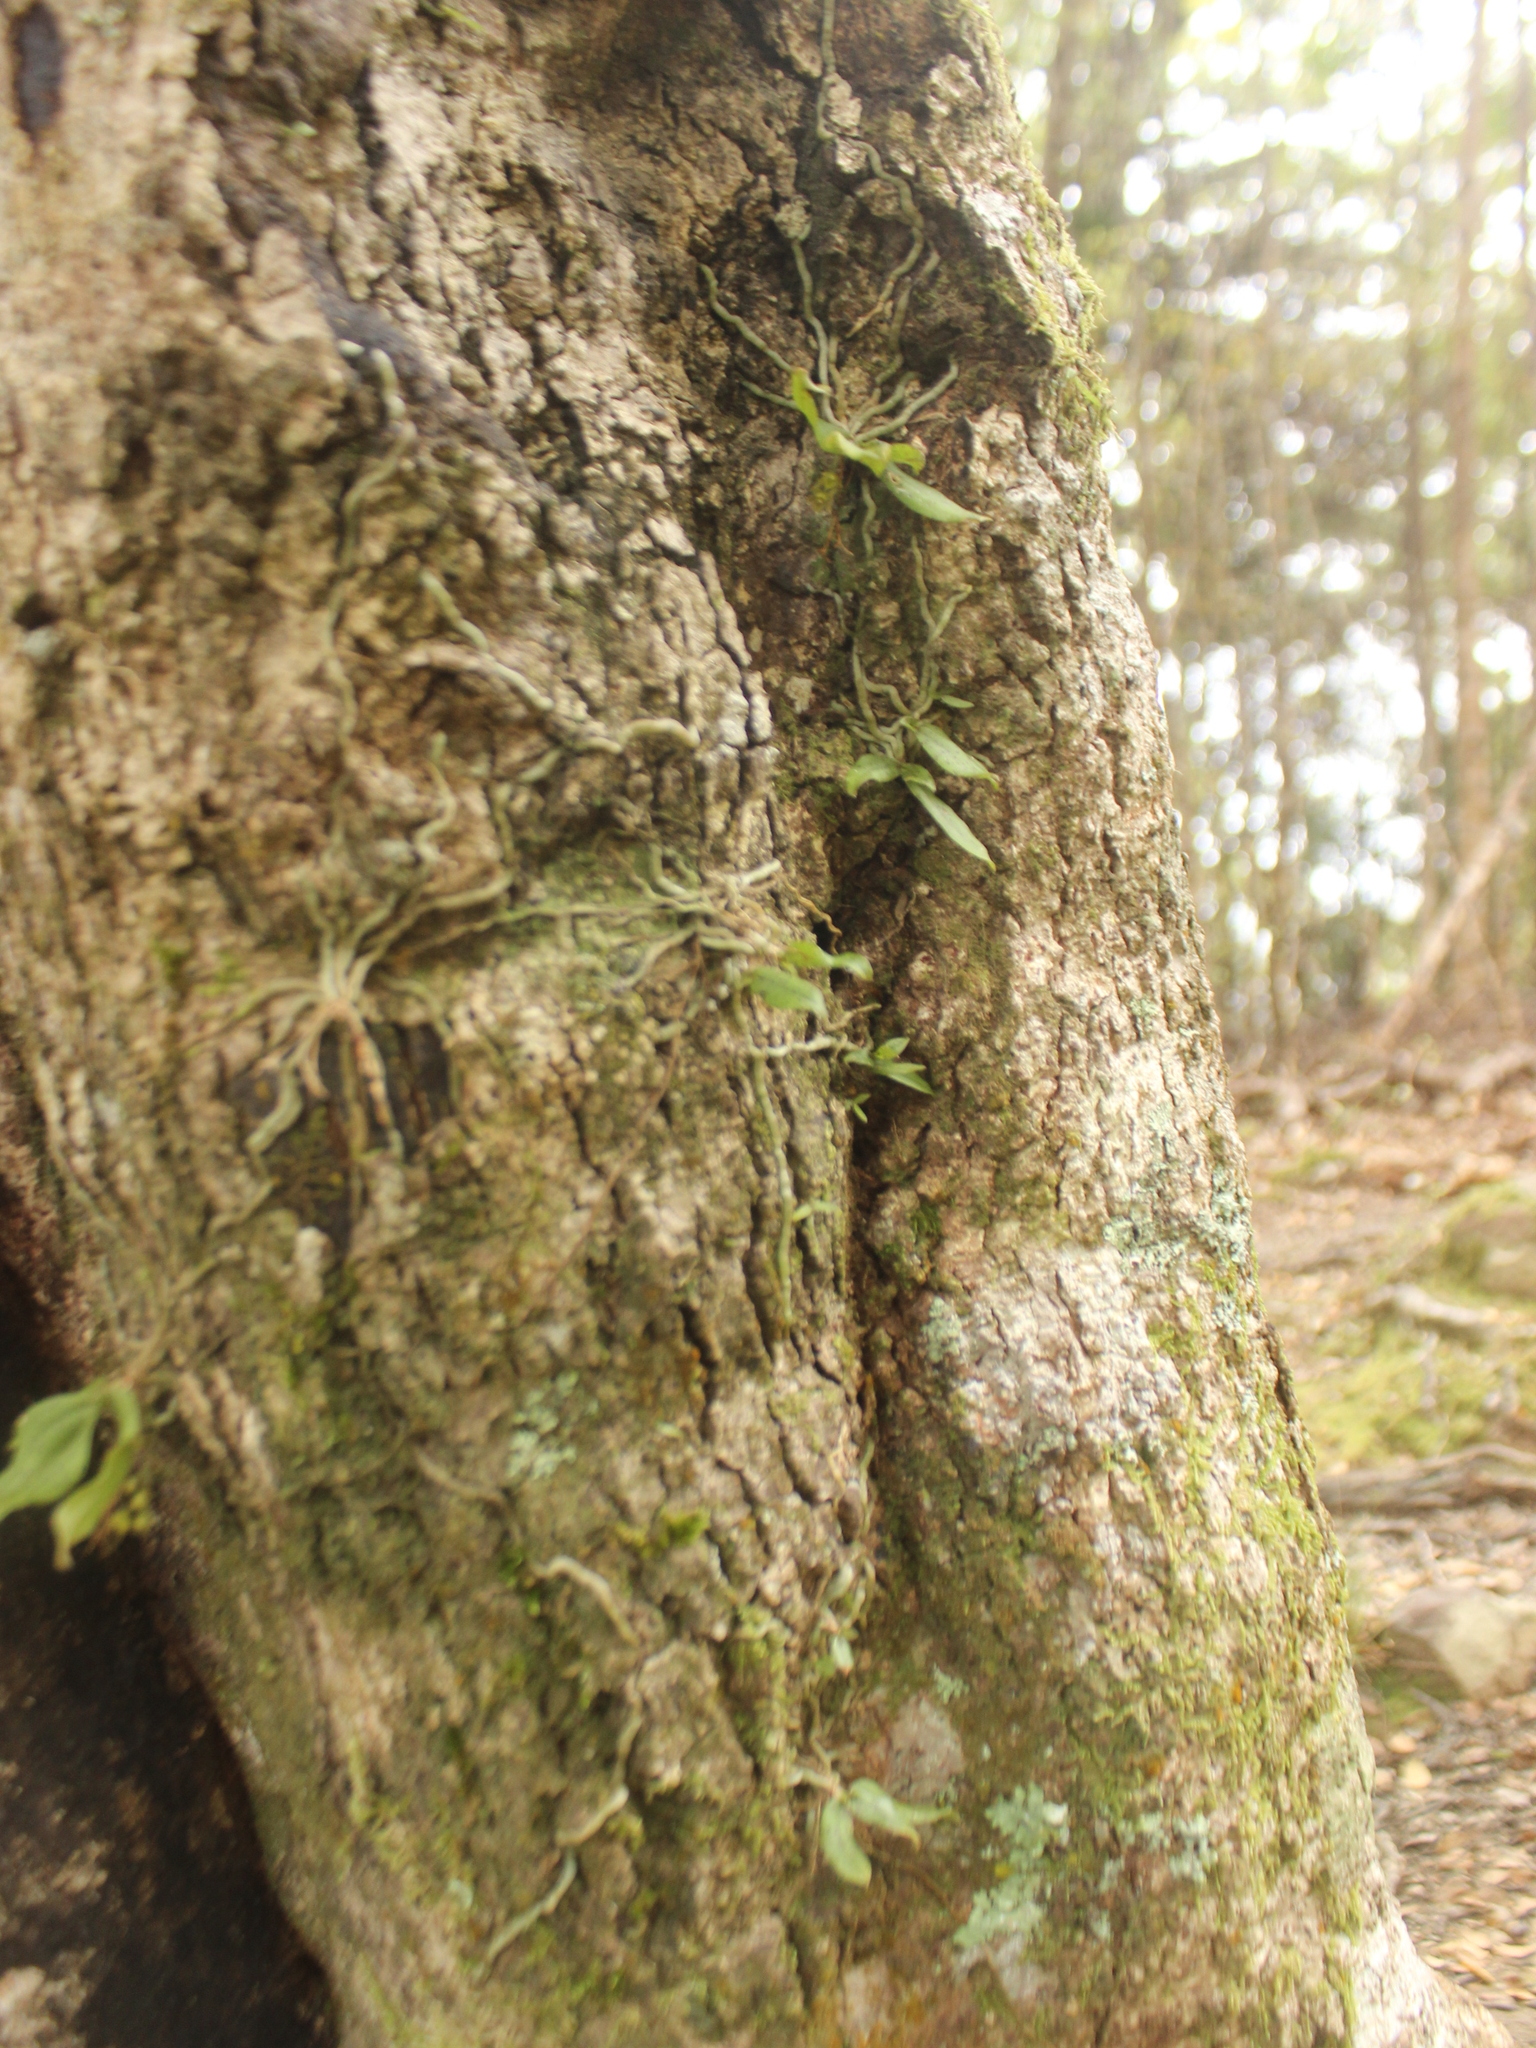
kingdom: Plantae
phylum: Tracheophyta
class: Liliopsida
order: Asparagales
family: Orchidaceae
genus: Drymoanthus
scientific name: Drymoanthus flavus
